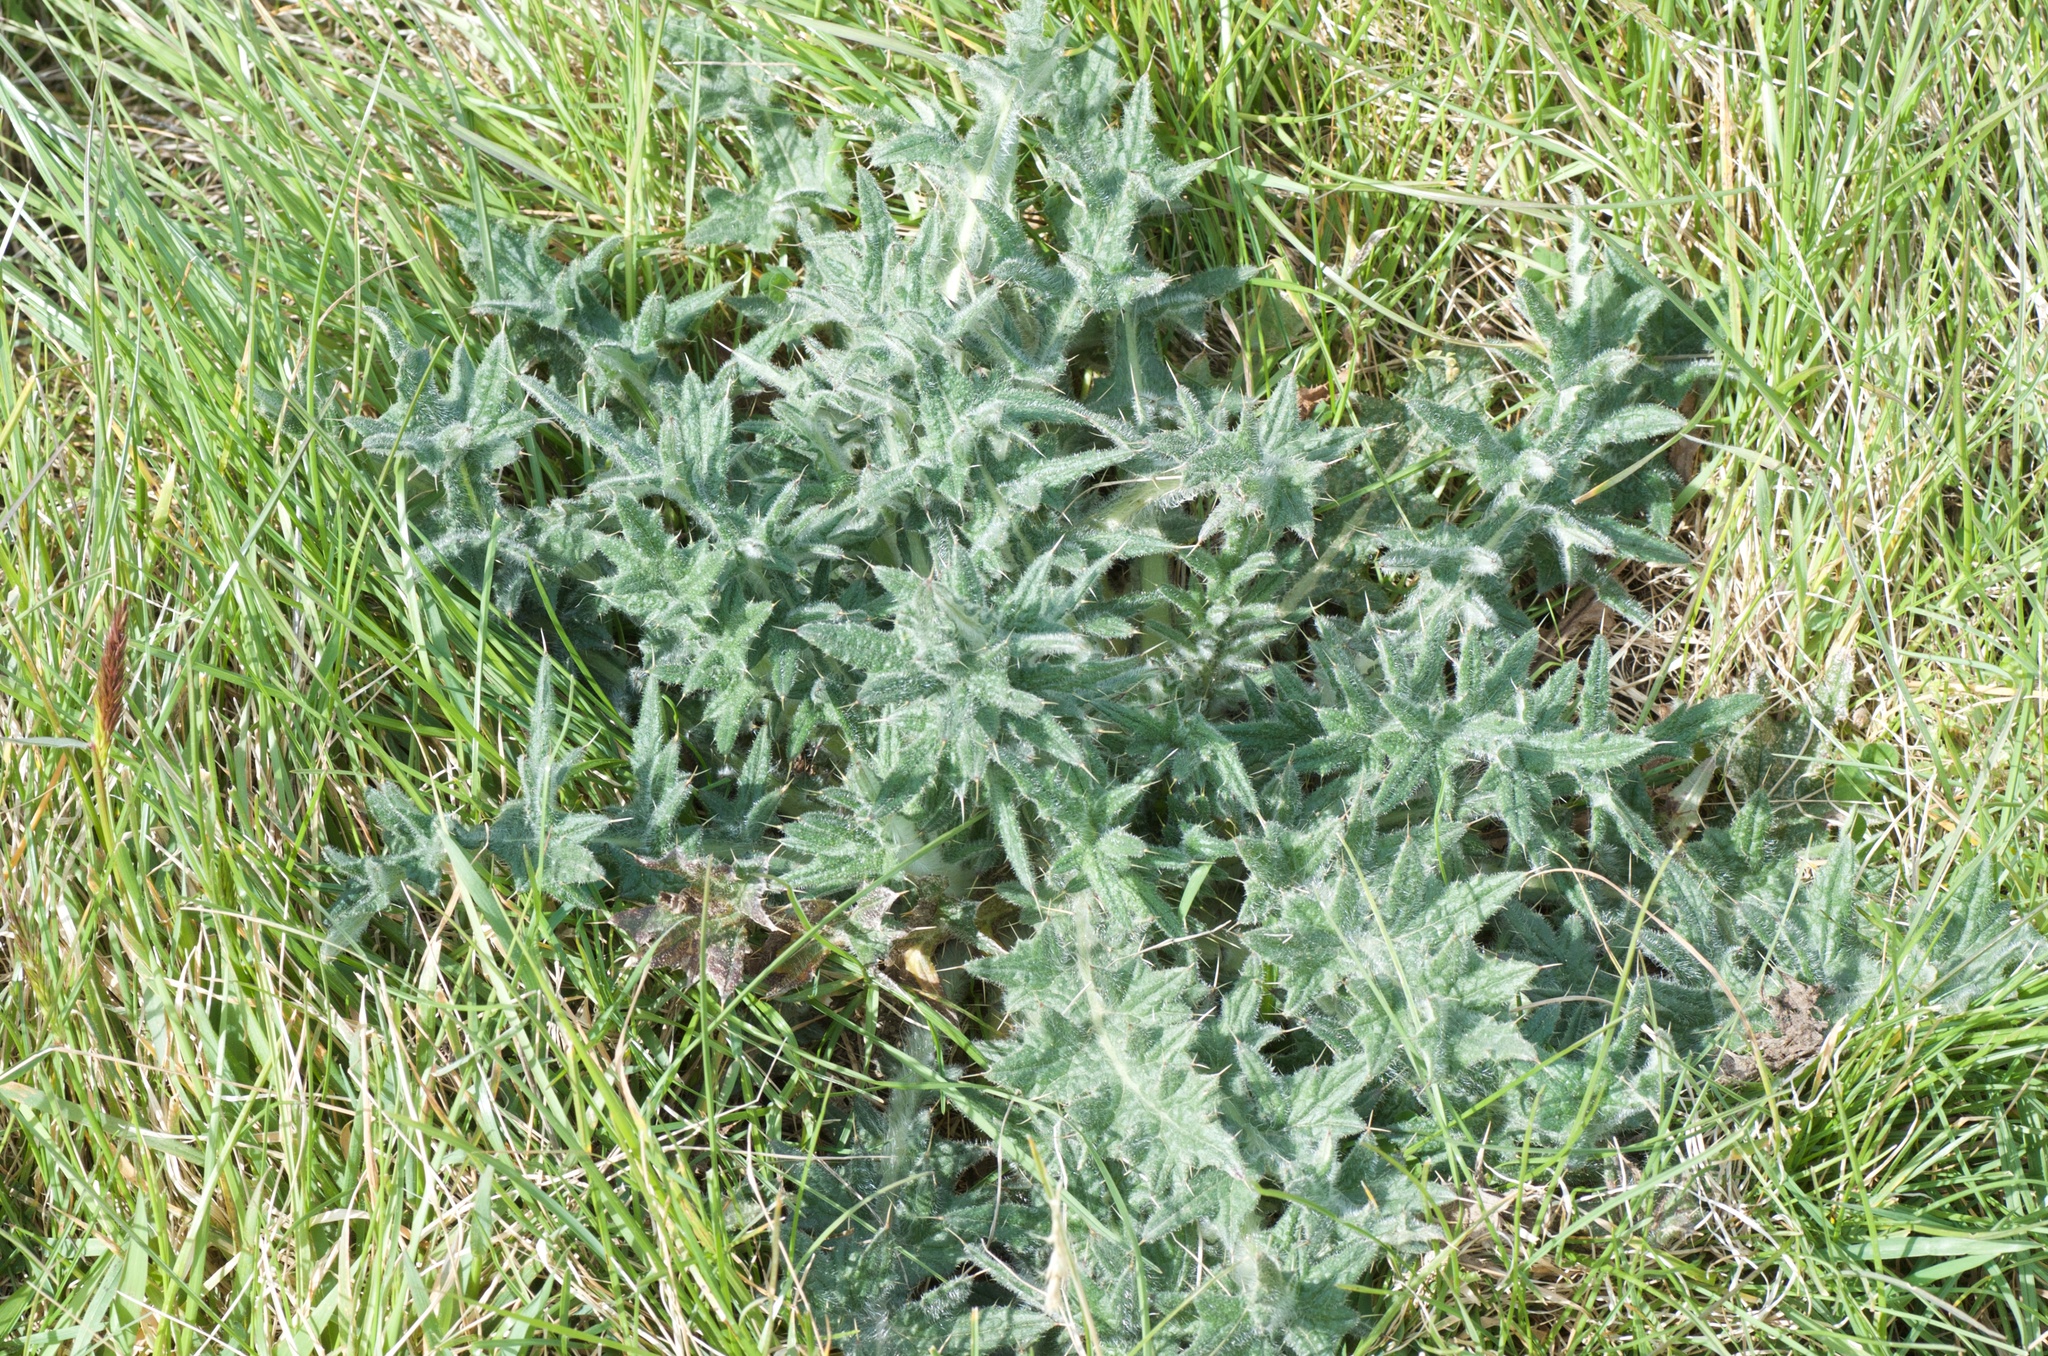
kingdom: Plantae
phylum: Tracheophyta
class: Magnoliopsida
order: Asterales
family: Asteraceae
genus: Cirsium
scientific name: Cirsium vulgare
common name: Bull thistle
